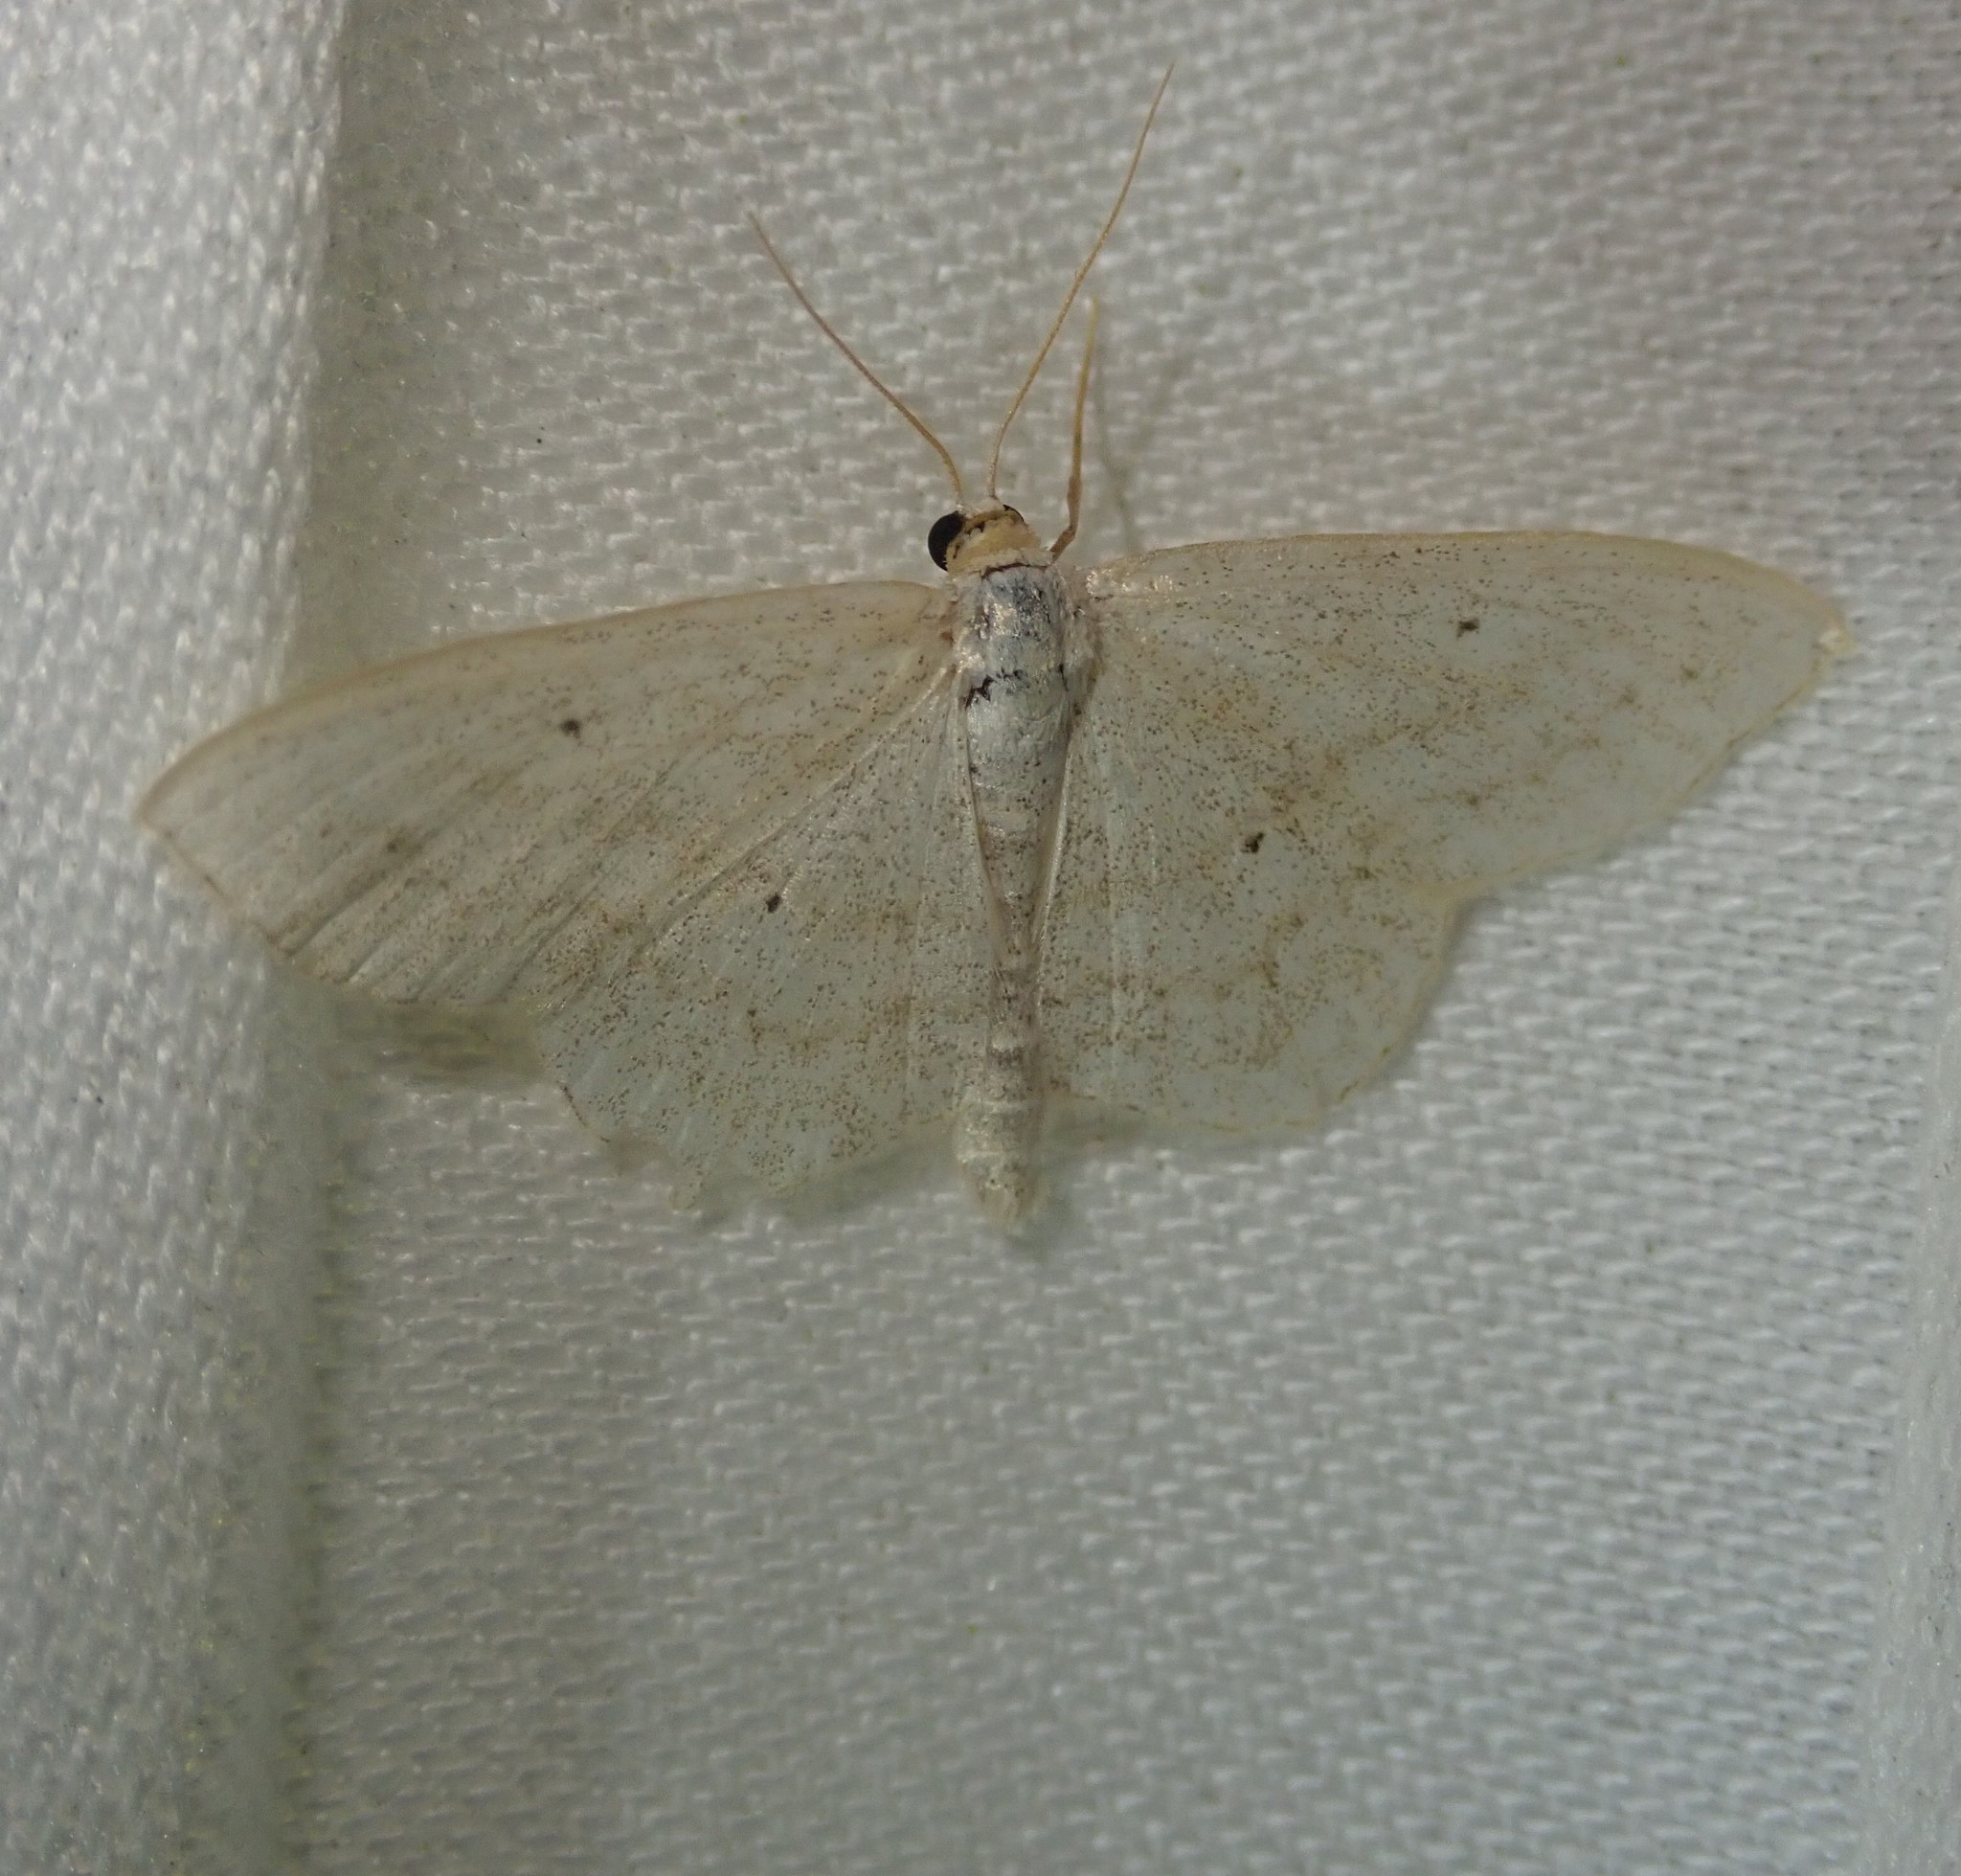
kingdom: Animalia
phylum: Arthropoda
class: Insecta
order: Lepidoptera
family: Geometridae
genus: Scopula
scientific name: Scopula immutata
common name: Lesser cream wave
